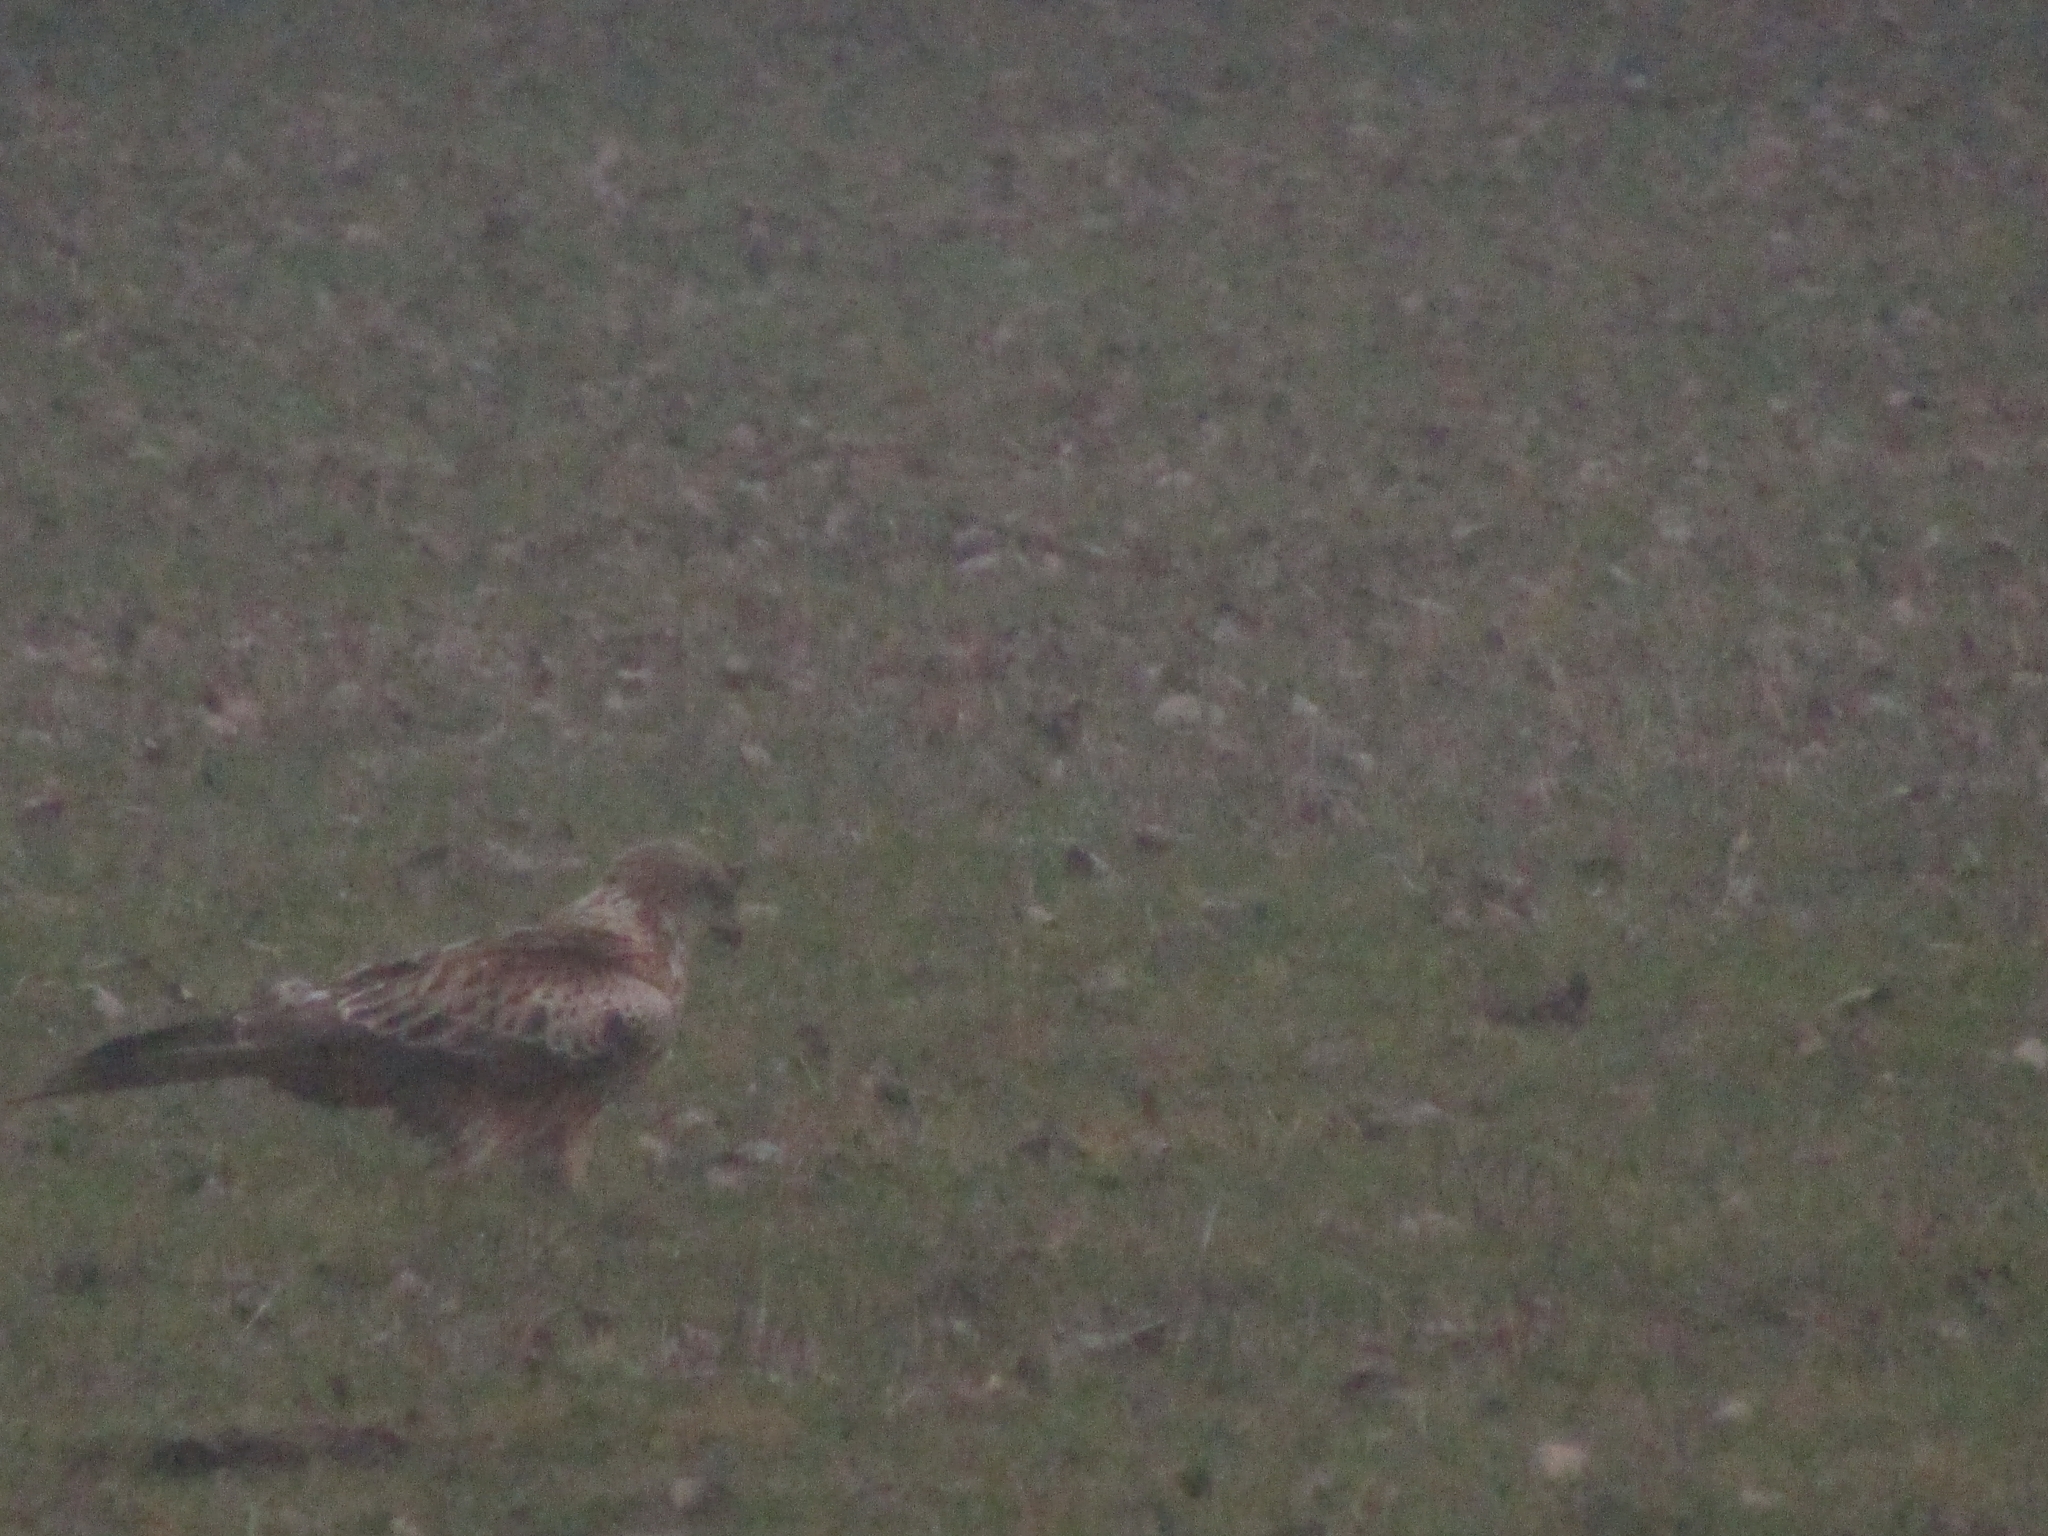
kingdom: Animalia
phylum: Chordata
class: Aves
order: Accipitriformes
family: Accipitridae
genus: Milvus
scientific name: Milvus milvus
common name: Red kite
